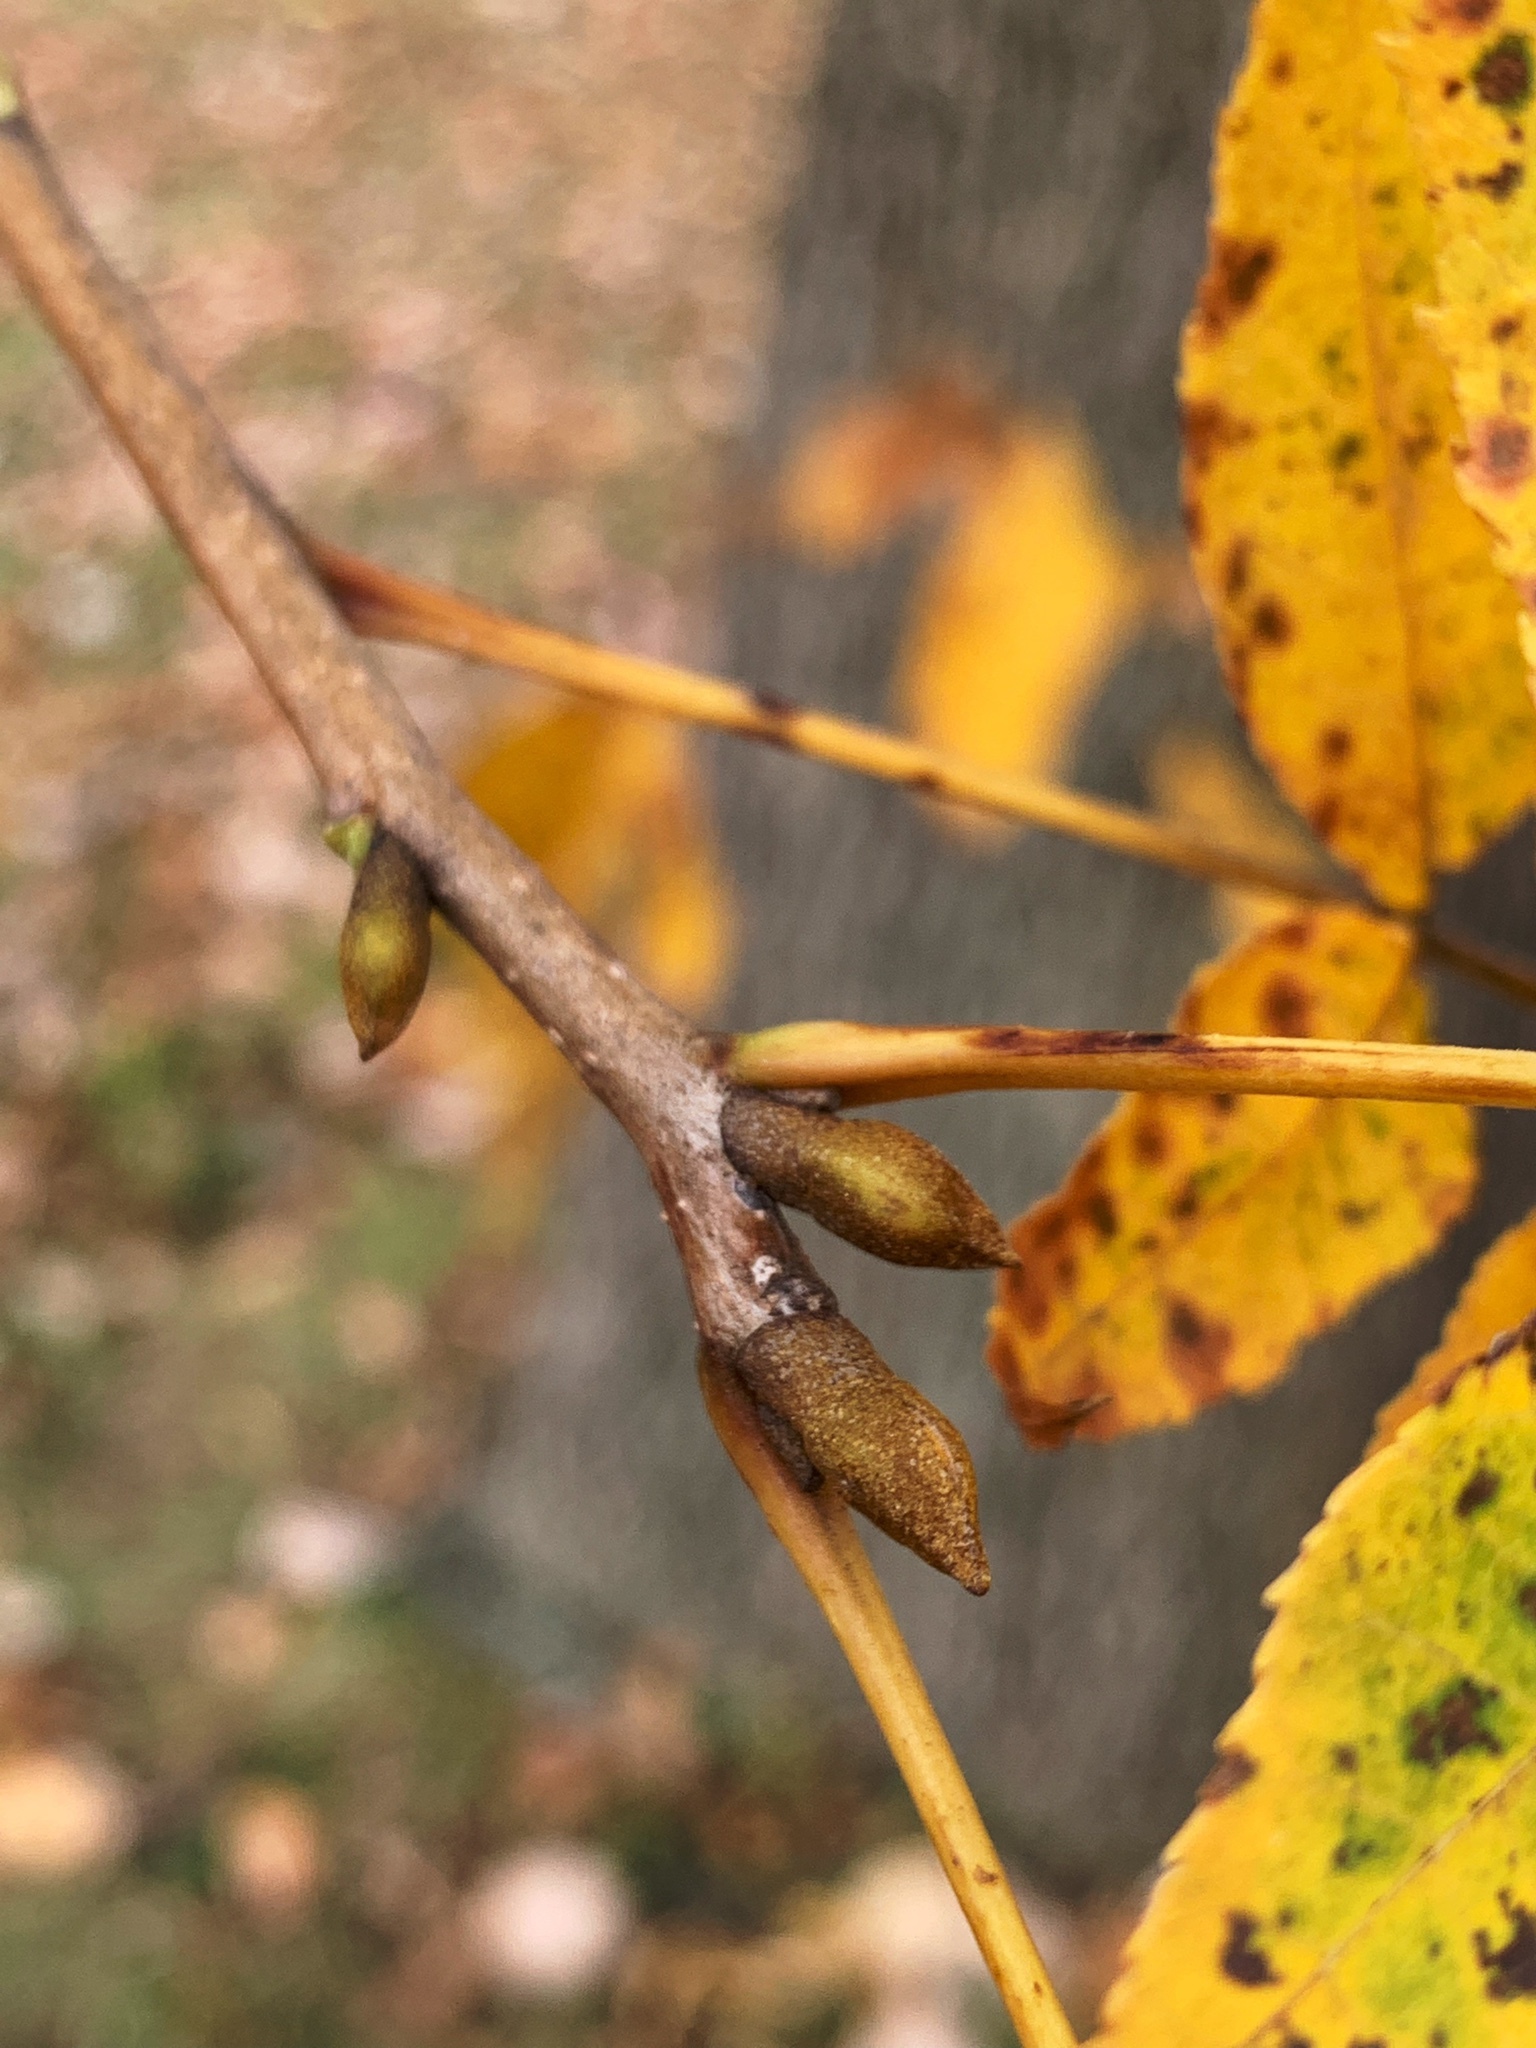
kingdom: Plantae
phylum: Tracheophyta
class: Magnoliopsida
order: Fagales
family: Juglandaceae
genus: Carya
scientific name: Carya cordiformis
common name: Bitternut hickory
